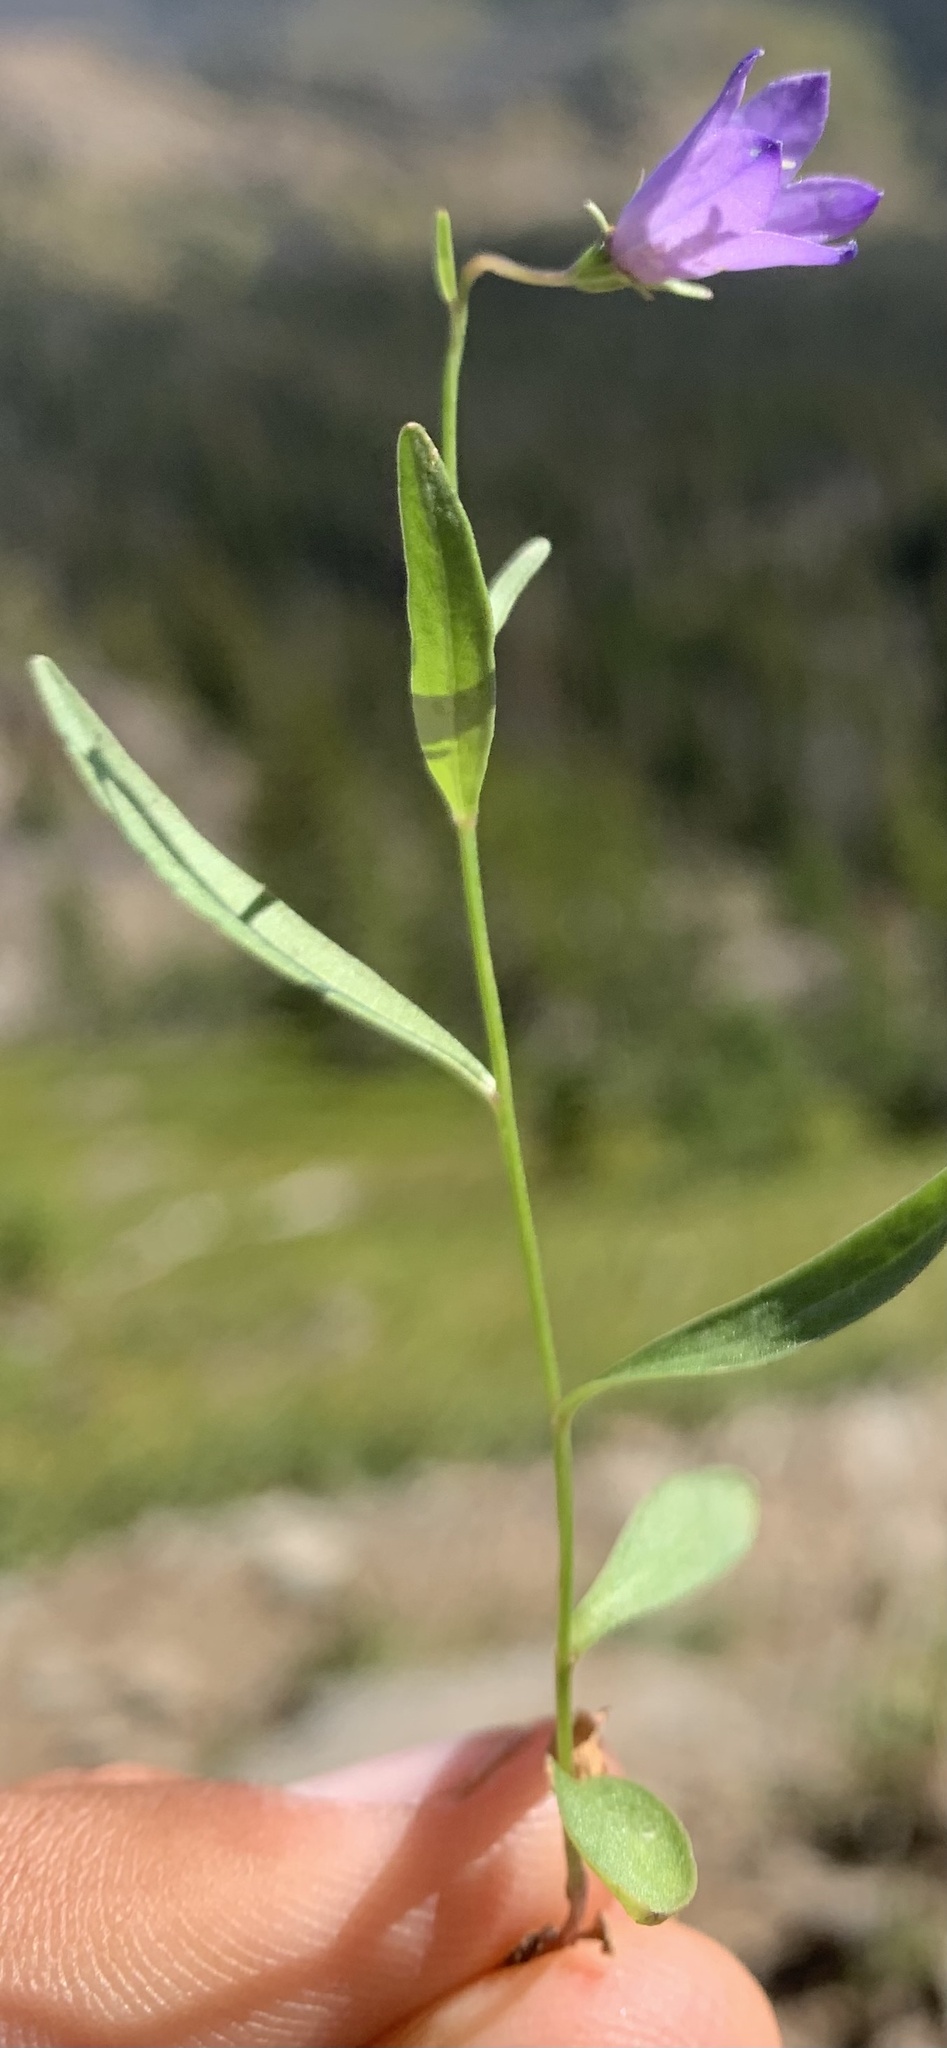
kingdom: Plantae
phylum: Tracheophyta
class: Magnoliopsida
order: Asterales
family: Campanulaceae
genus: Campanula
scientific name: Campanula parryi
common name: Rocky mountain bellflower
